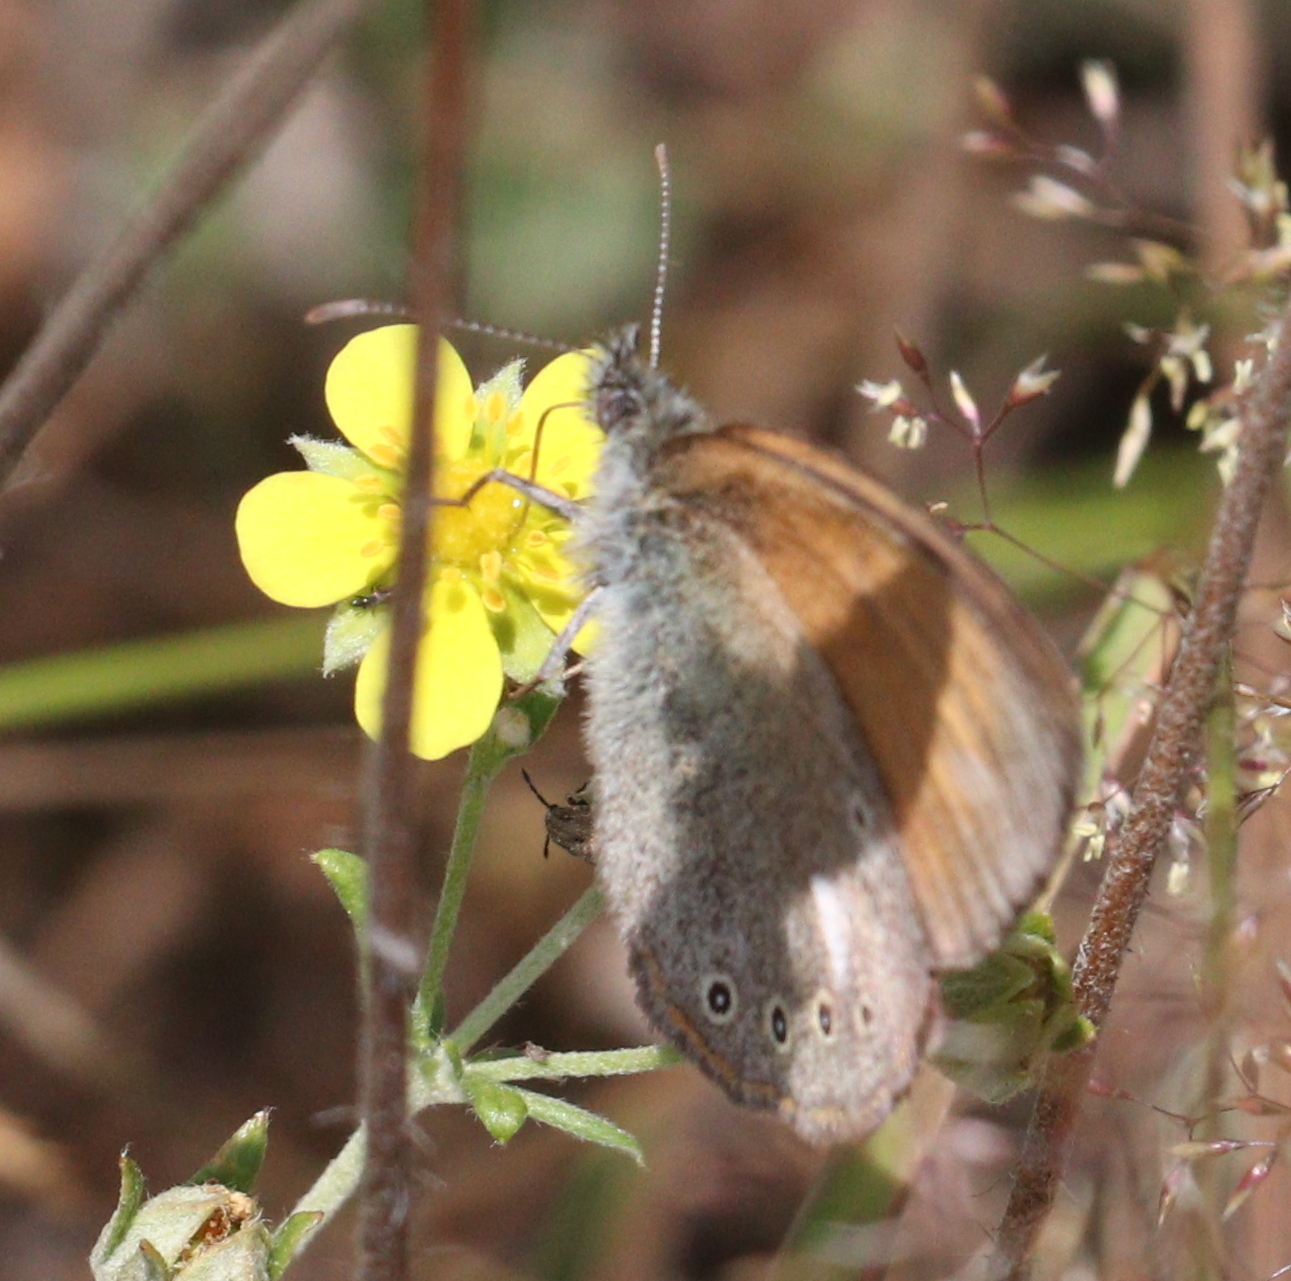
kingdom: Animalia
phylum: Arthropoda
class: Insecta
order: Lepidoptera
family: Nymphalidae
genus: Coenonympha
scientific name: Coenonympha iphis
